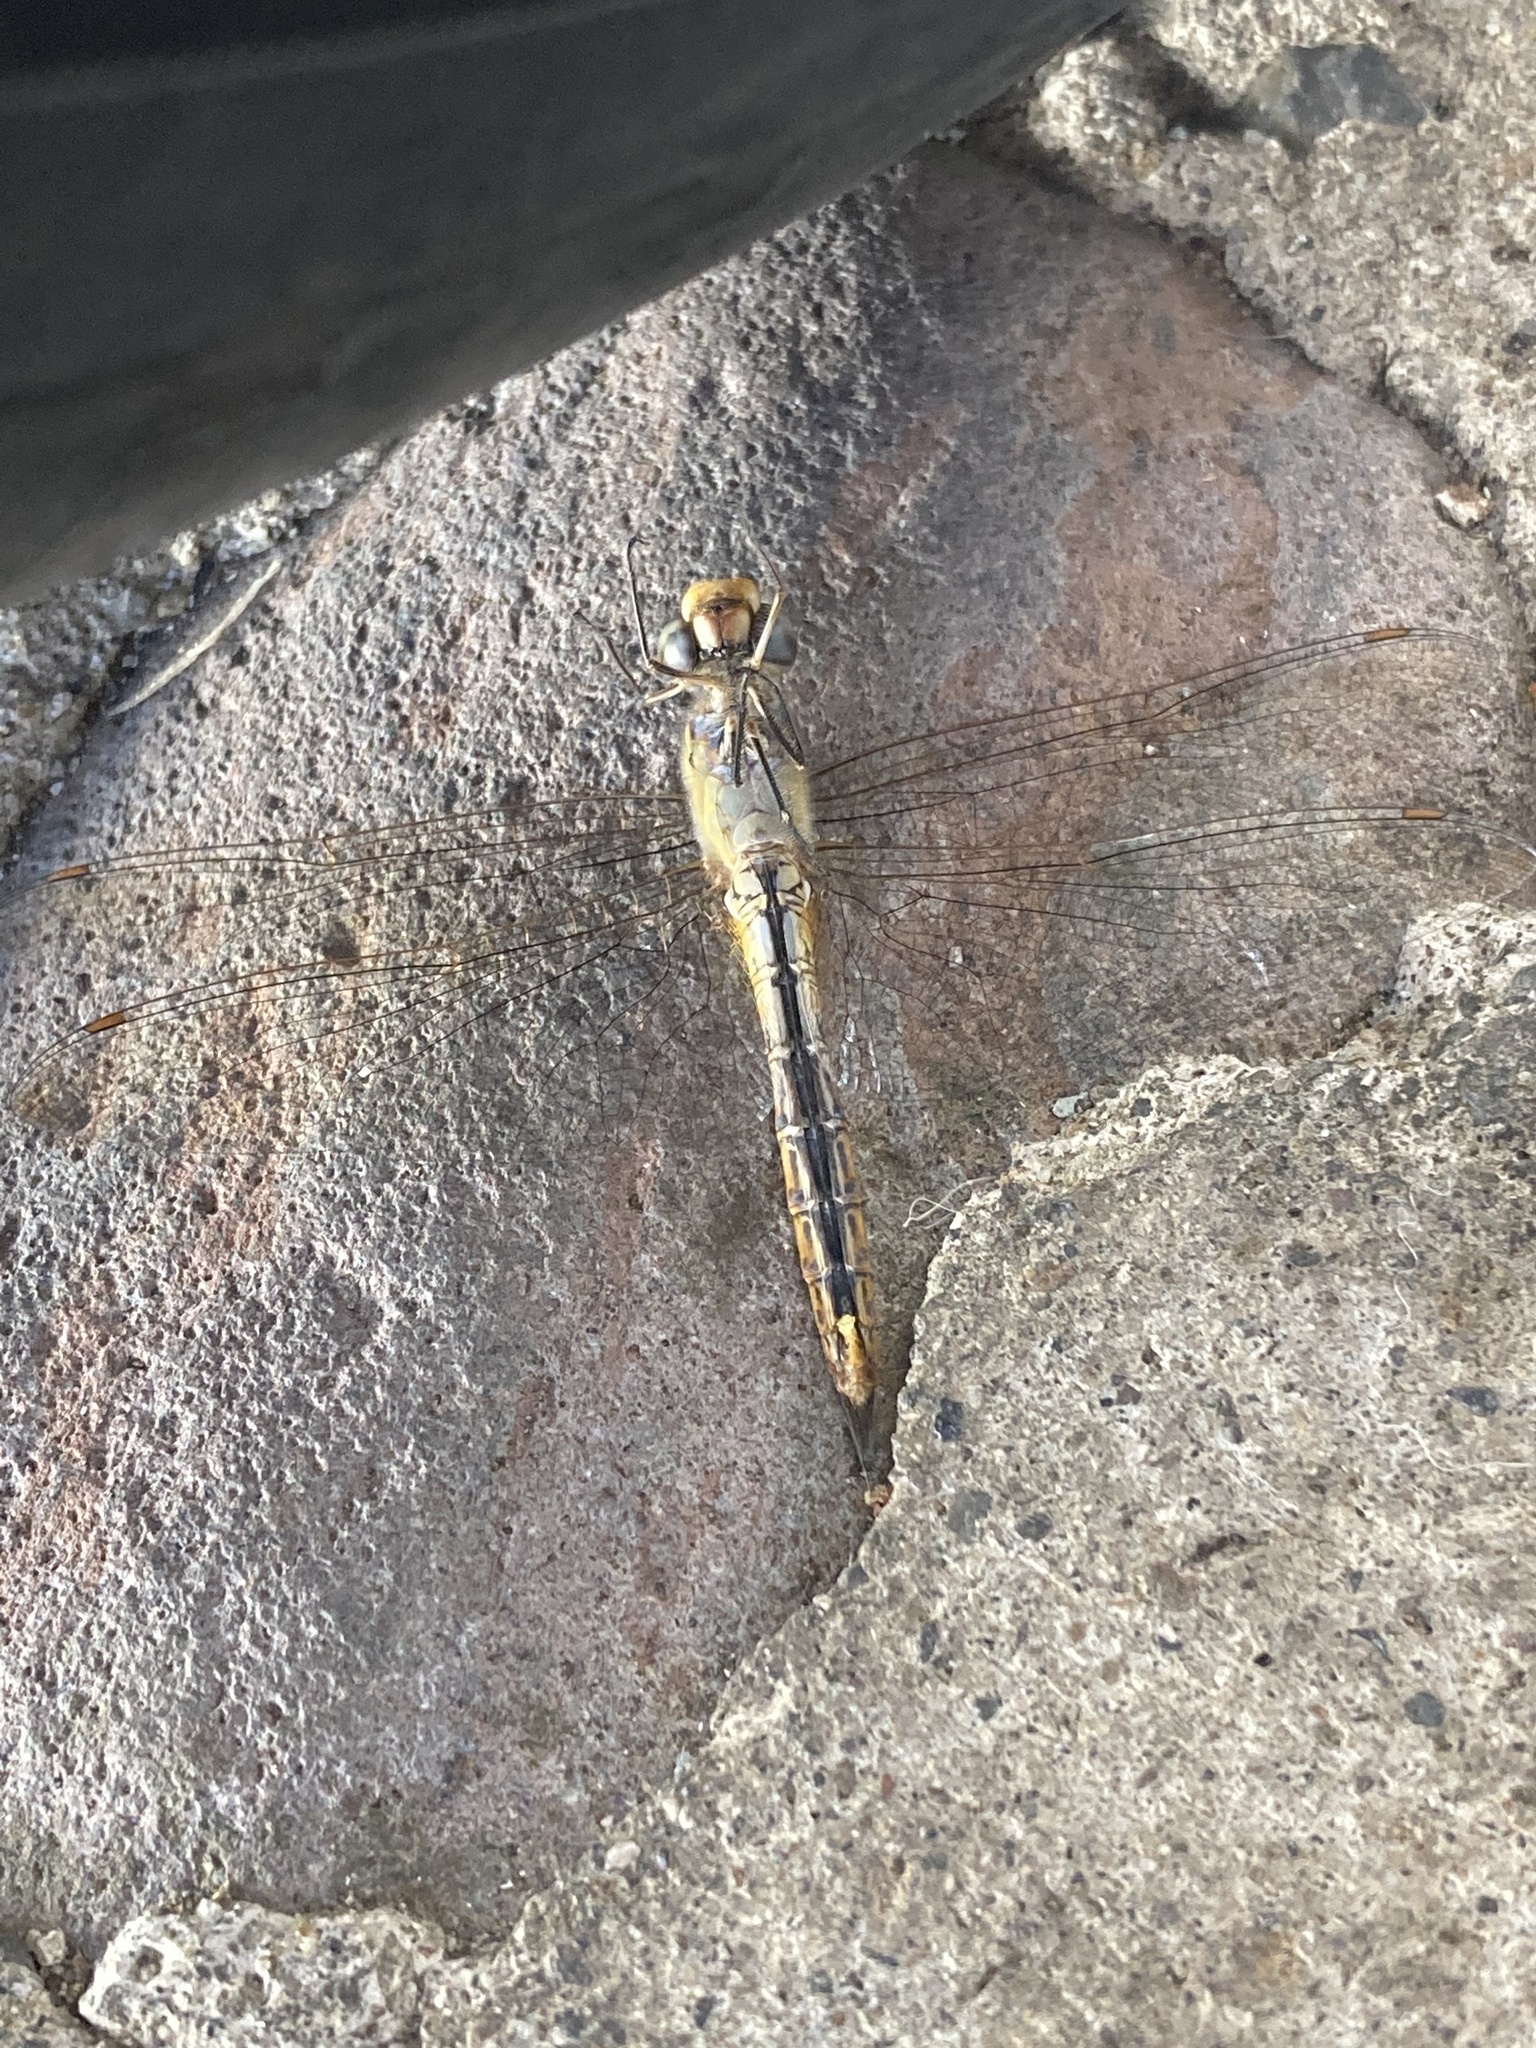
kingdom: Animalia
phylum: Arthropoda
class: Insecta
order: Odonata
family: Libellulidae
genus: Pantala
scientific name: Pantala flavescens
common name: Wandering glider
